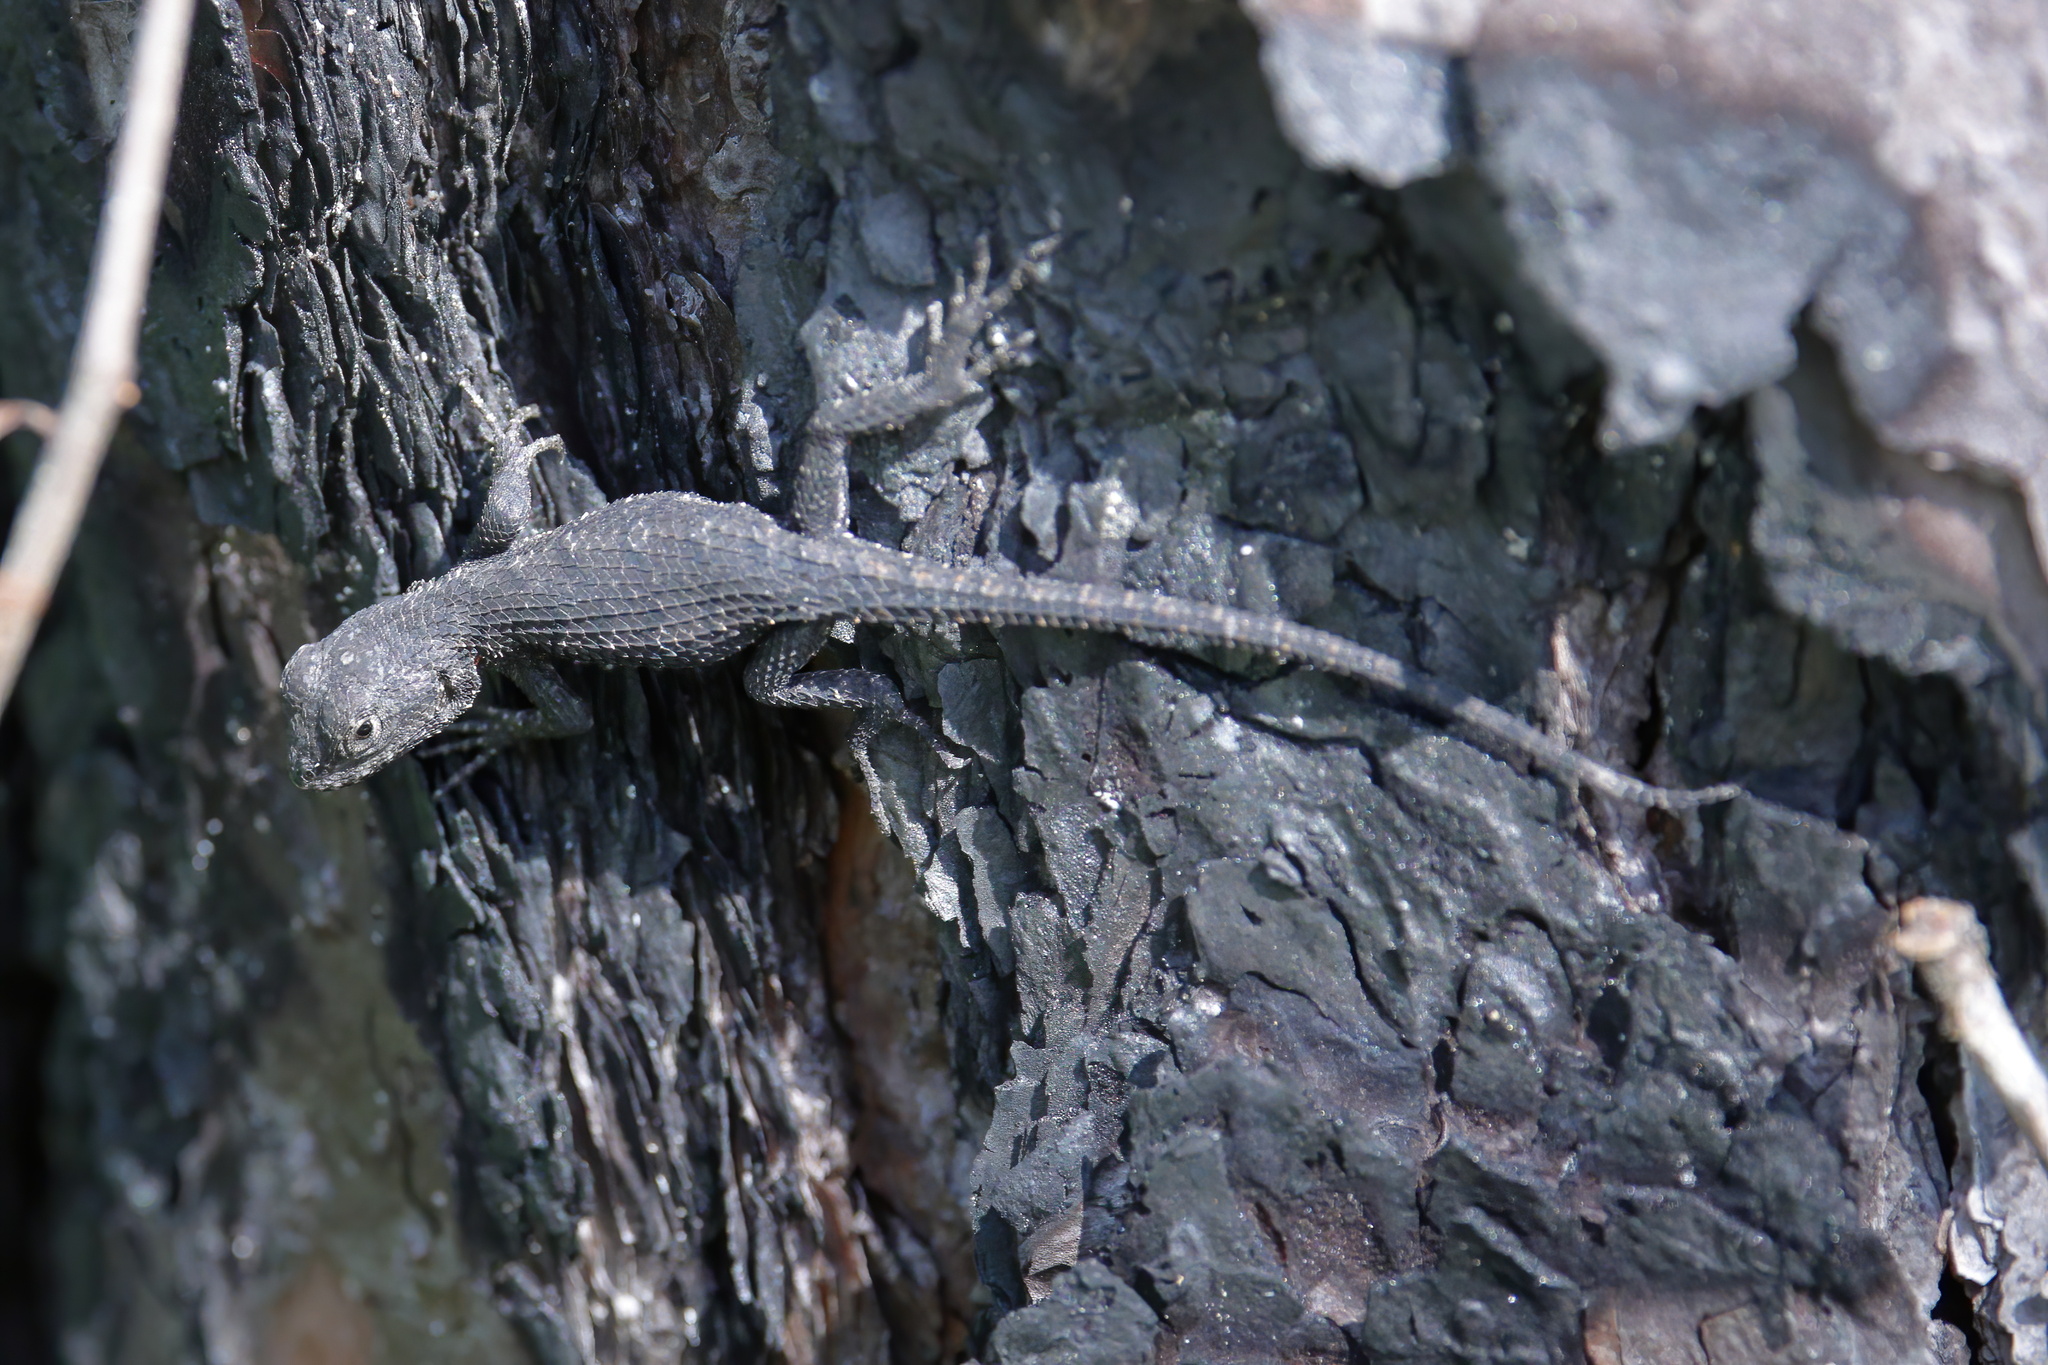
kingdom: Animalia
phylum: Chordata
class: Squamata
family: Phrynosomatidae
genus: Sceloporus
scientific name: Sceloporus undulatus
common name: Eastern fence lizard
